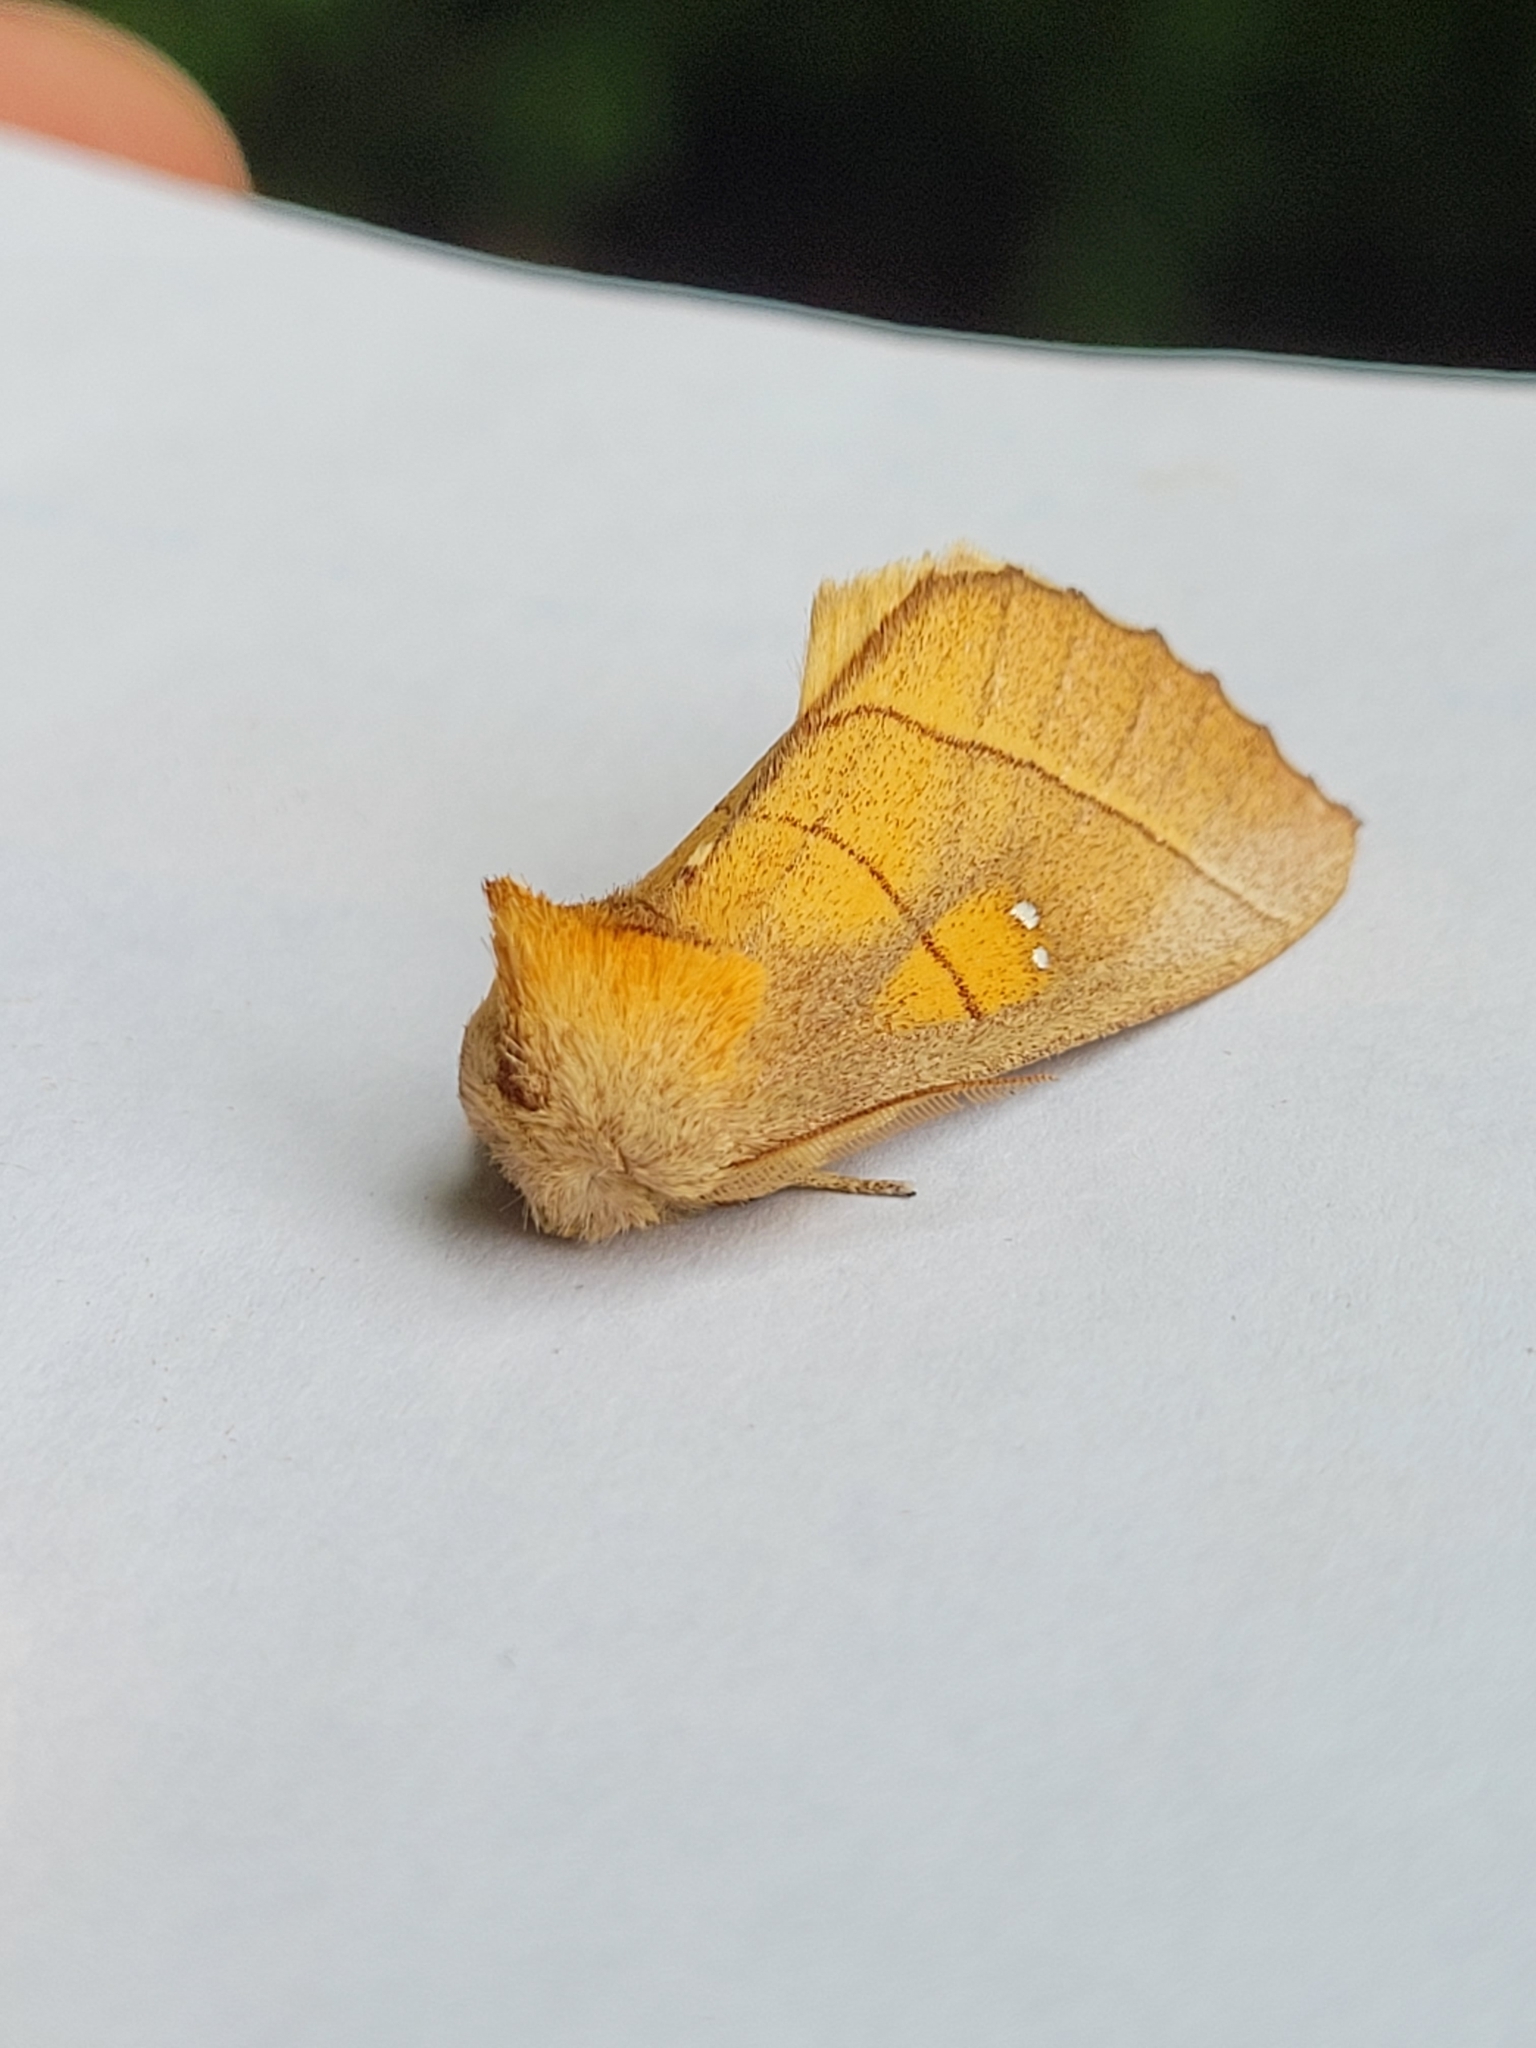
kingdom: Animalia
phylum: Arthropoda
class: Insecta
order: Lepidoptera
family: Notodontidae
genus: Nadata
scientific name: Nadata gibbosa
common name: White-dotted prominent
